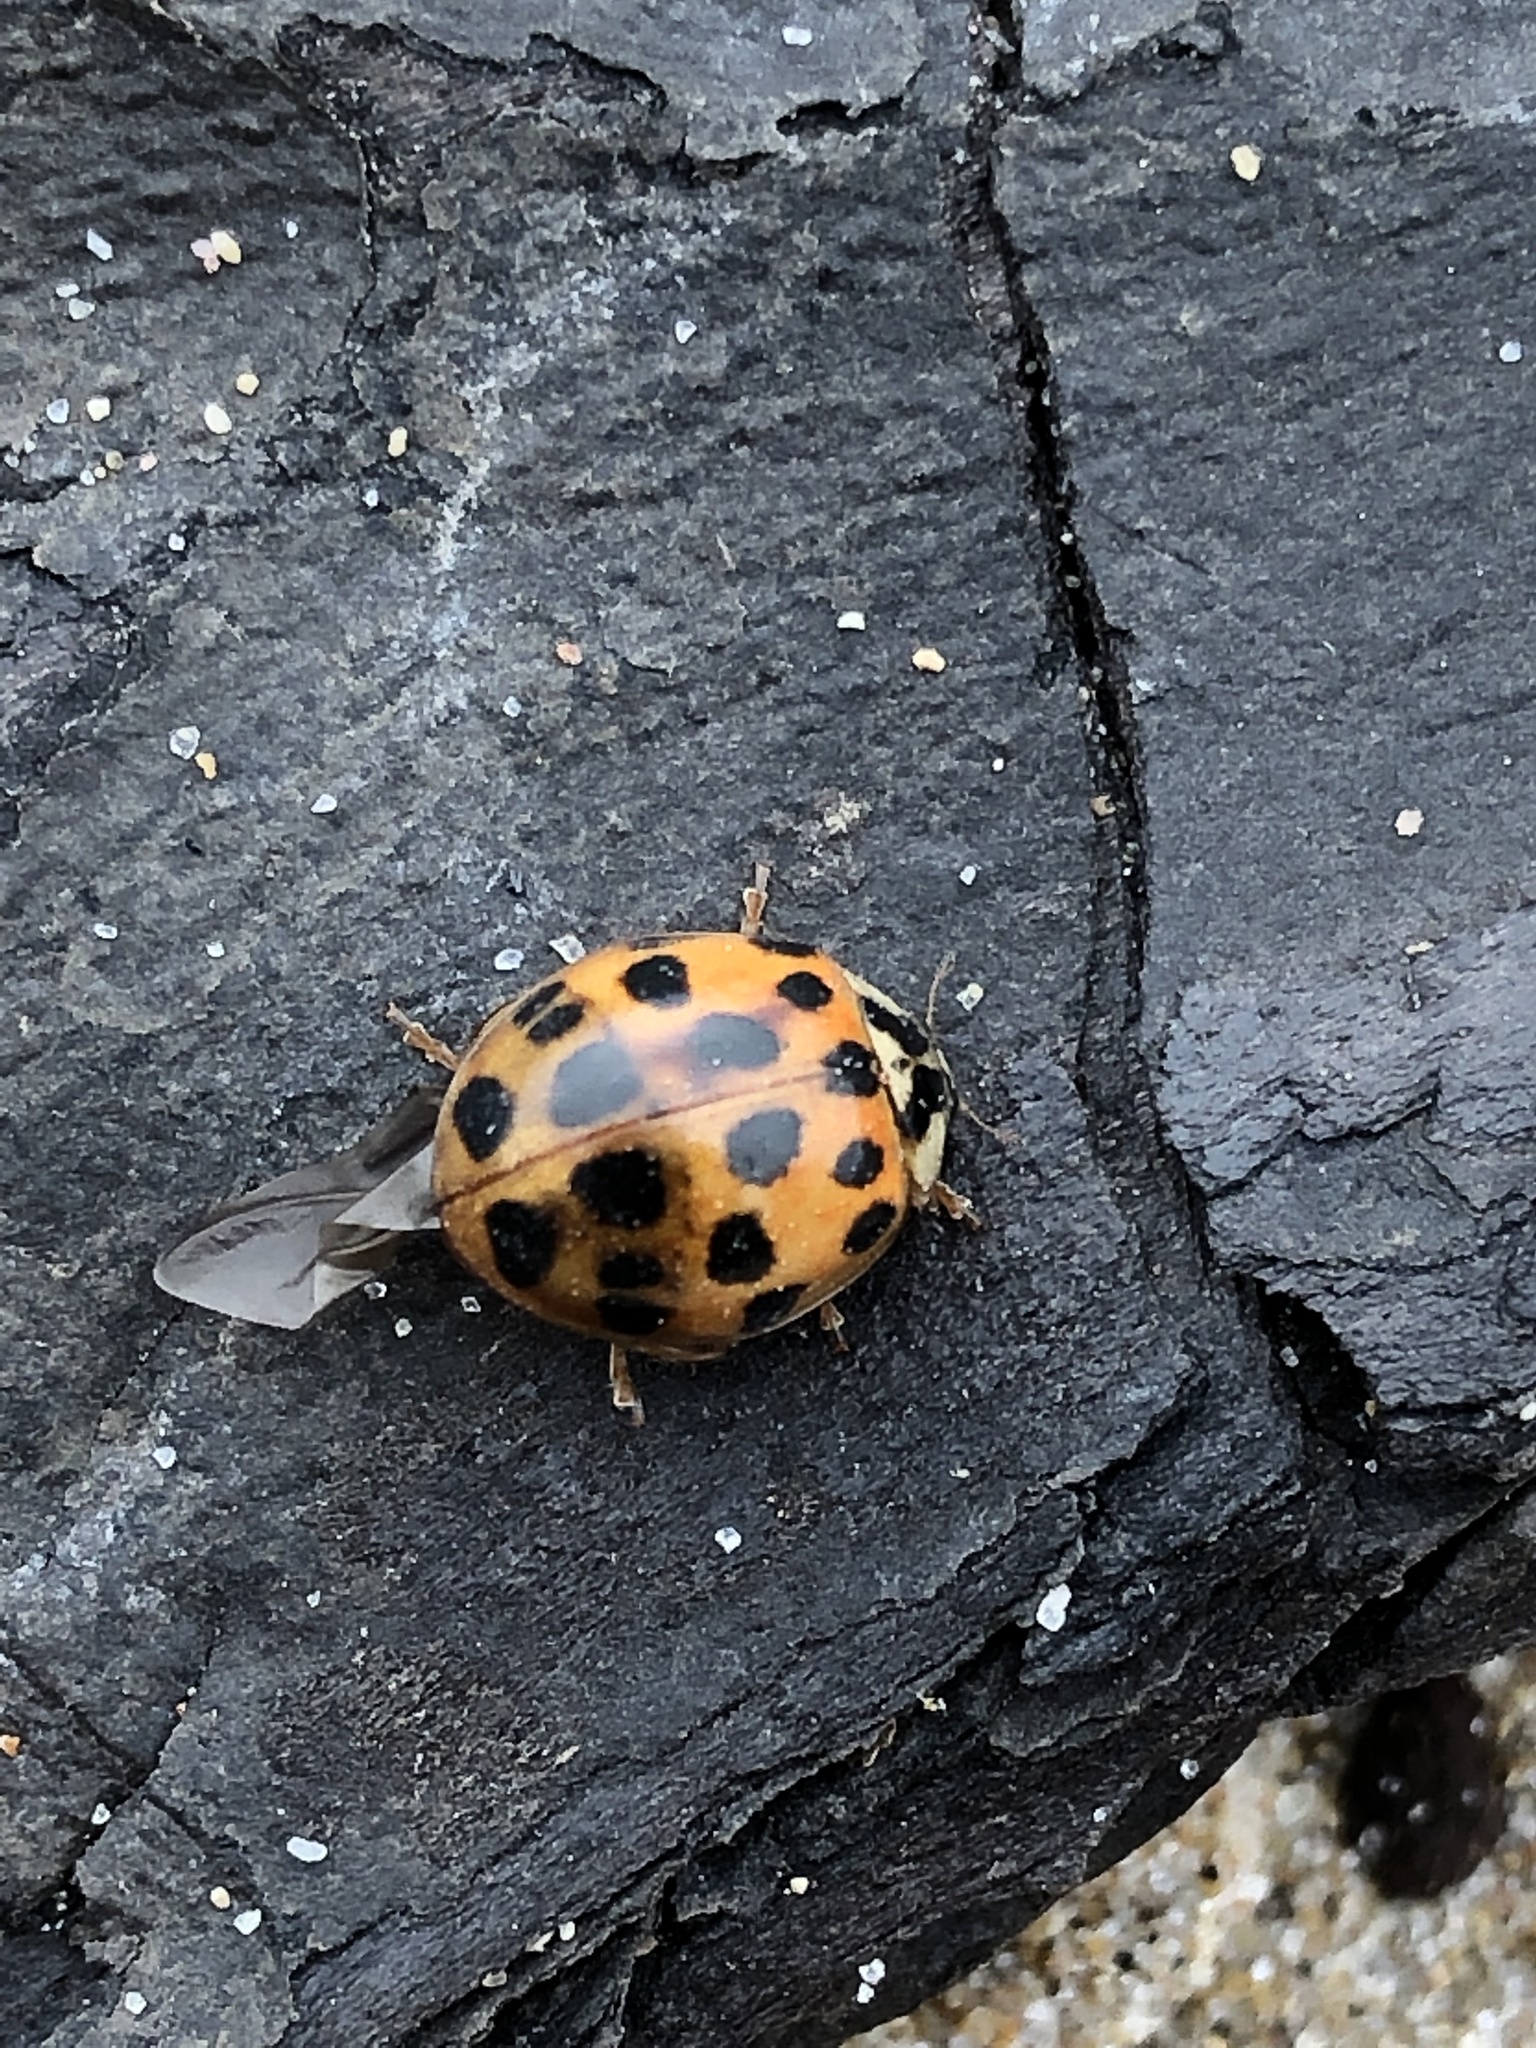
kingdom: Animalia
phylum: Arthropoda
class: Insecta
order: Coleoptera
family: Coccinellidae
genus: Harmonia
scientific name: Harmonia axyridis
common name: Harlequin ladybird
